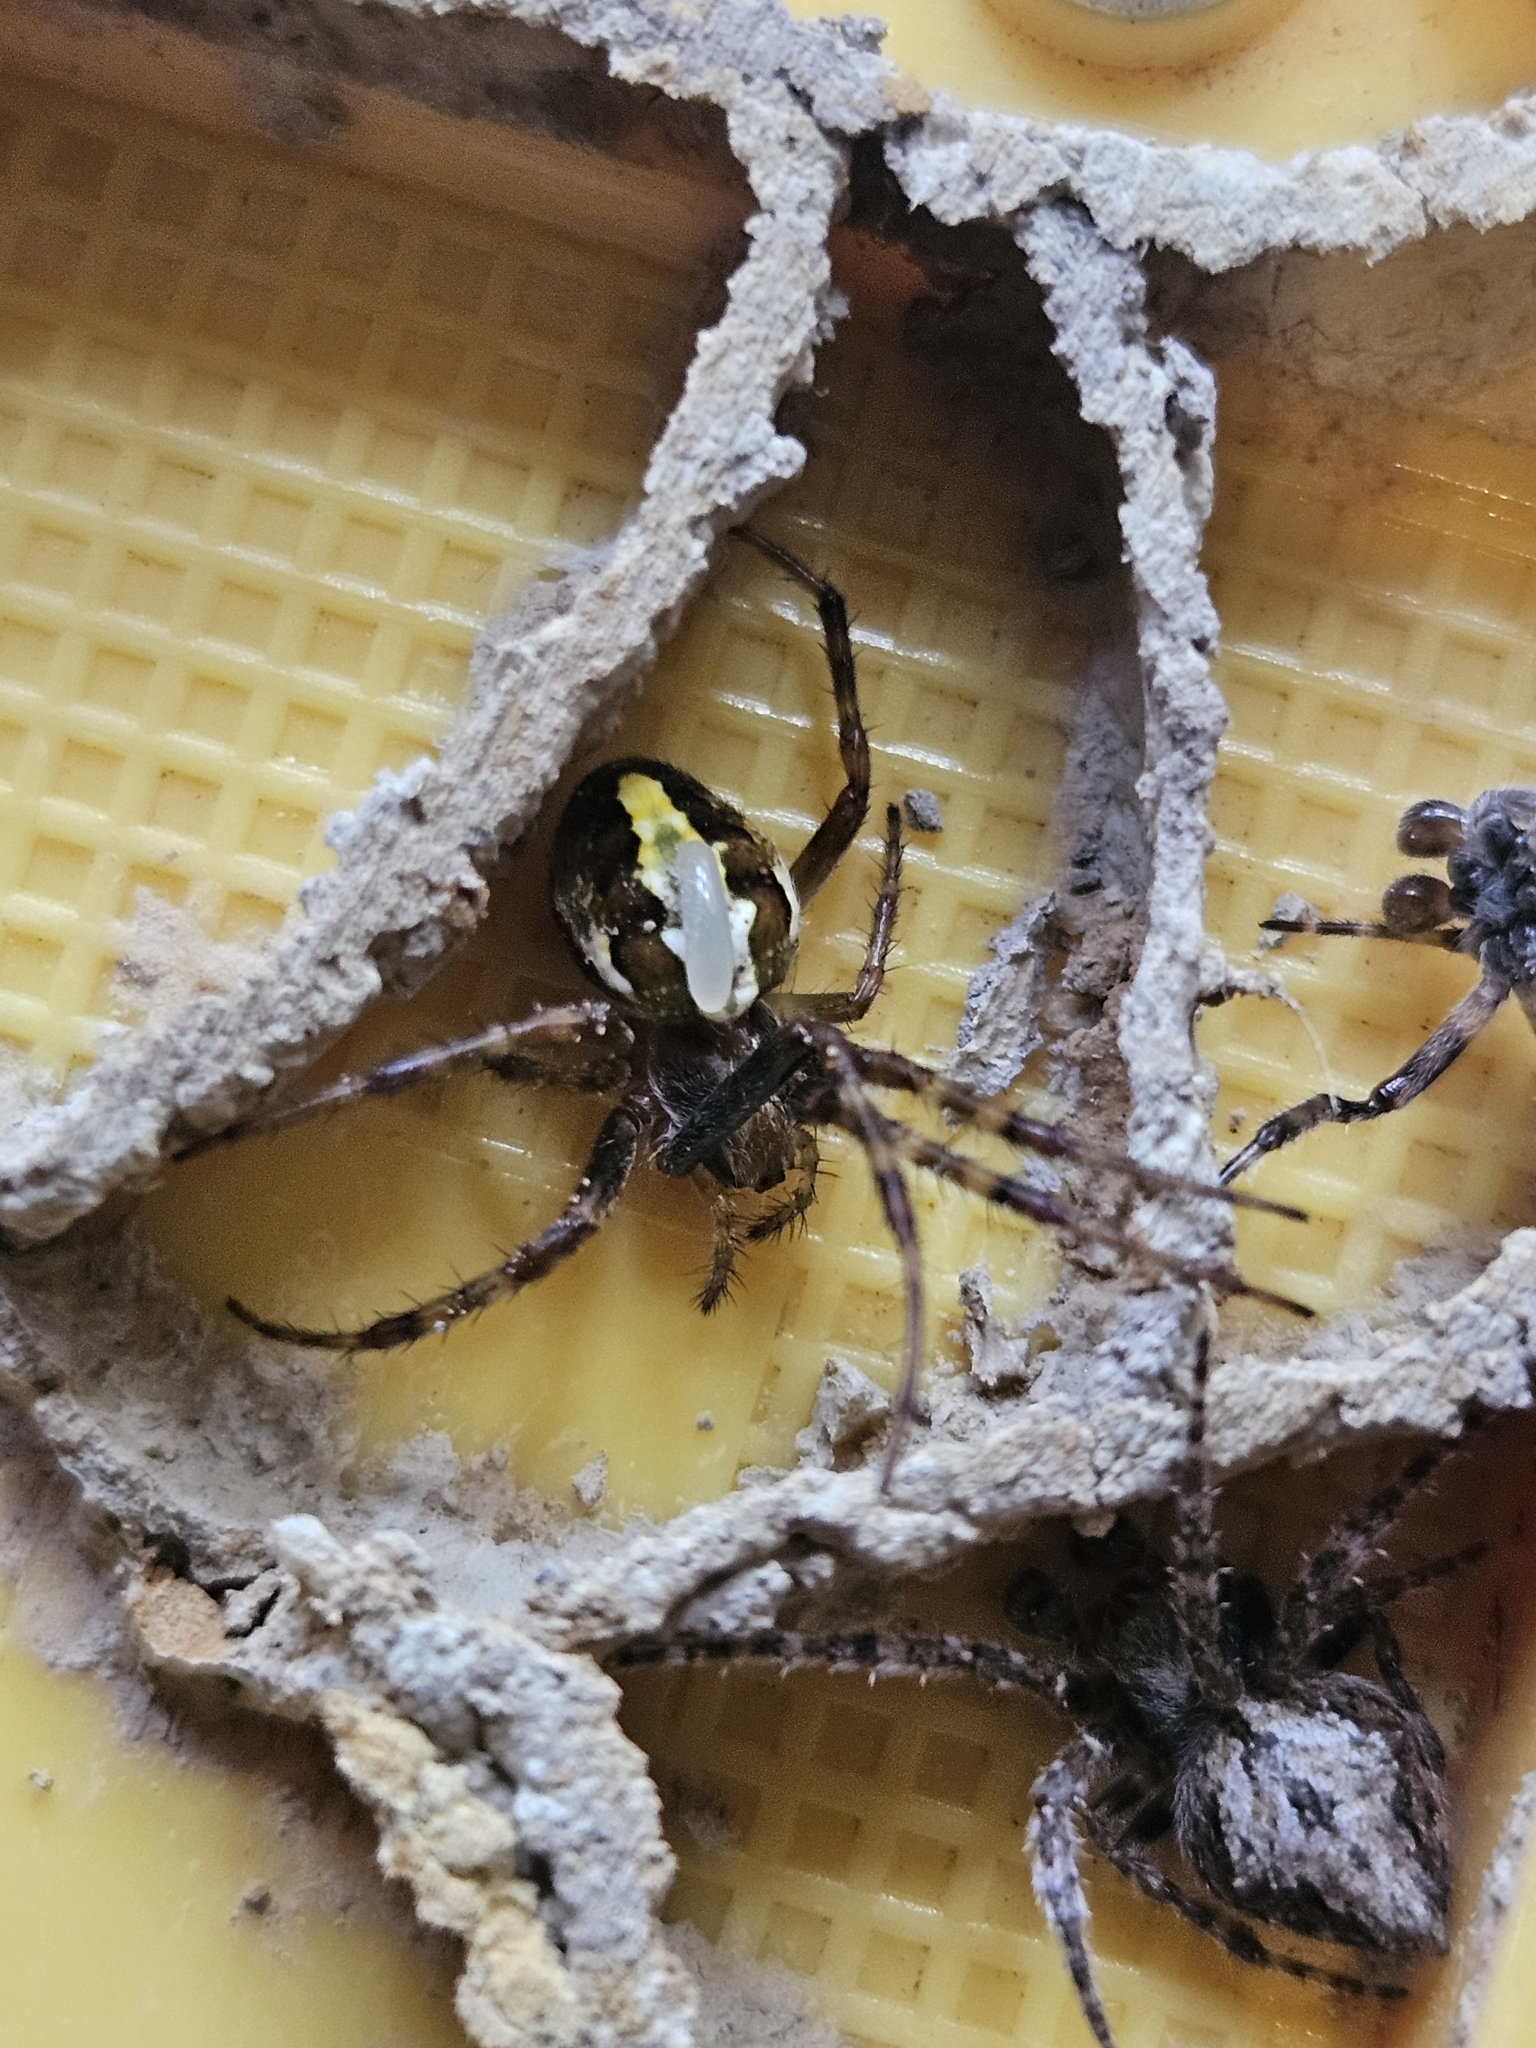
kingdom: Animalia
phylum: Arthropoda
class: Arachnida
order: Araneae
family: Araneidae
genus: Novaranea
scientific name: Novaranea queribunda
